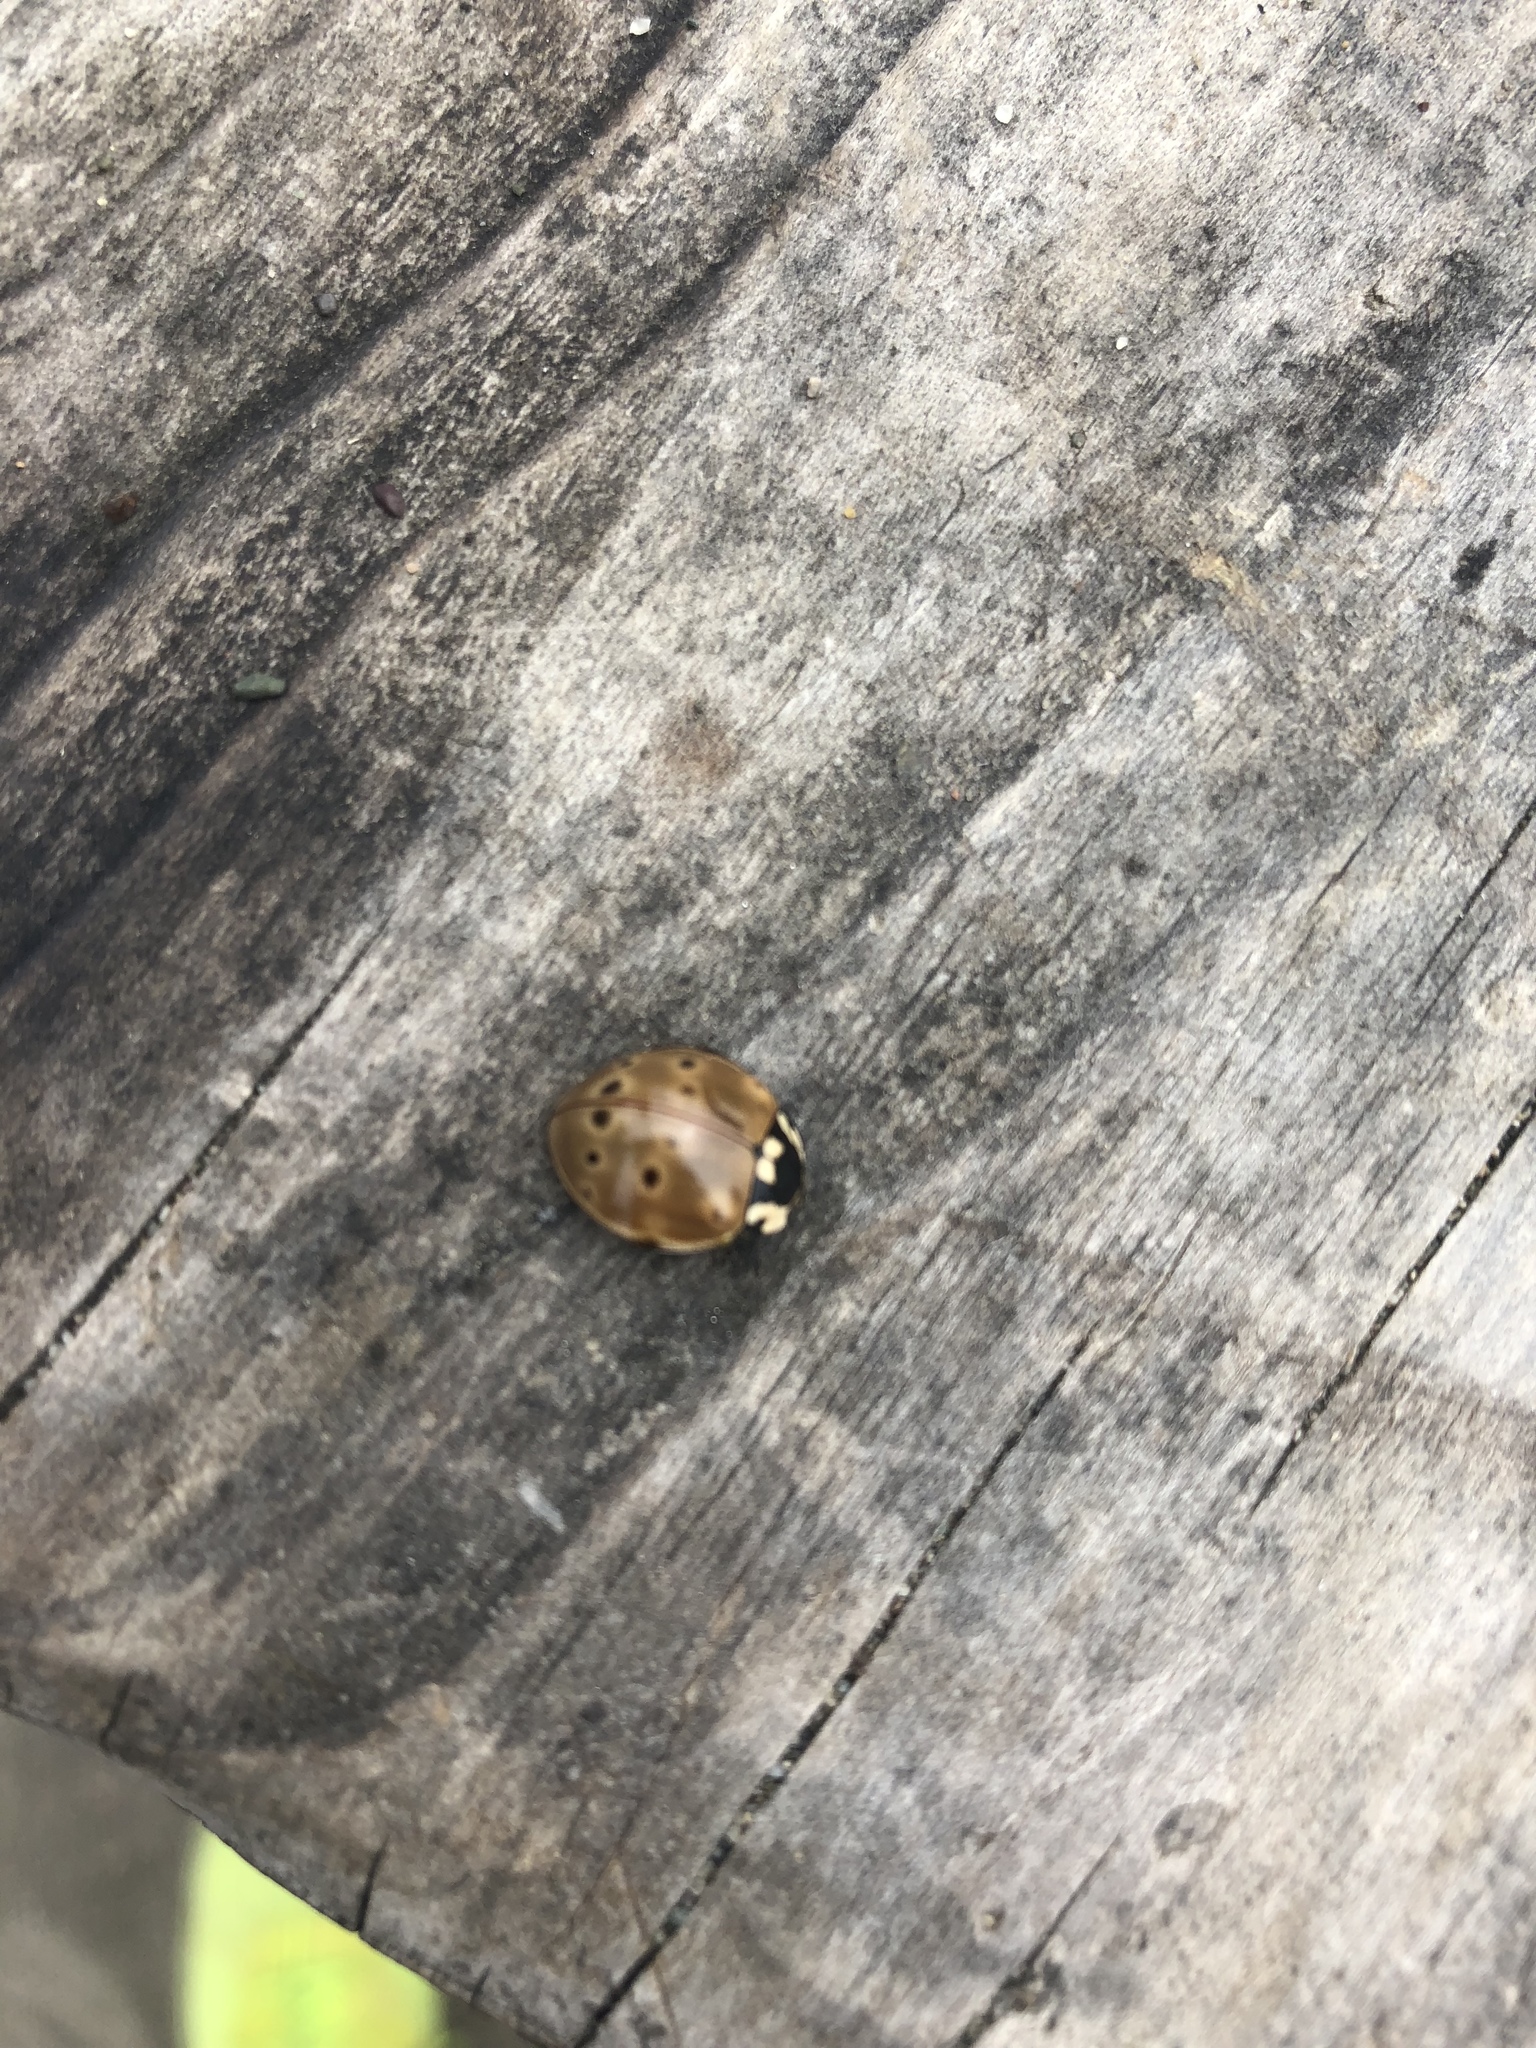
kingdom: Animalia
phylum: Arthropoda
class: Insecta
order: Coleoptera
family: Coccinellidae
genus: Anatis
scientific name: Anatis rathvoni
